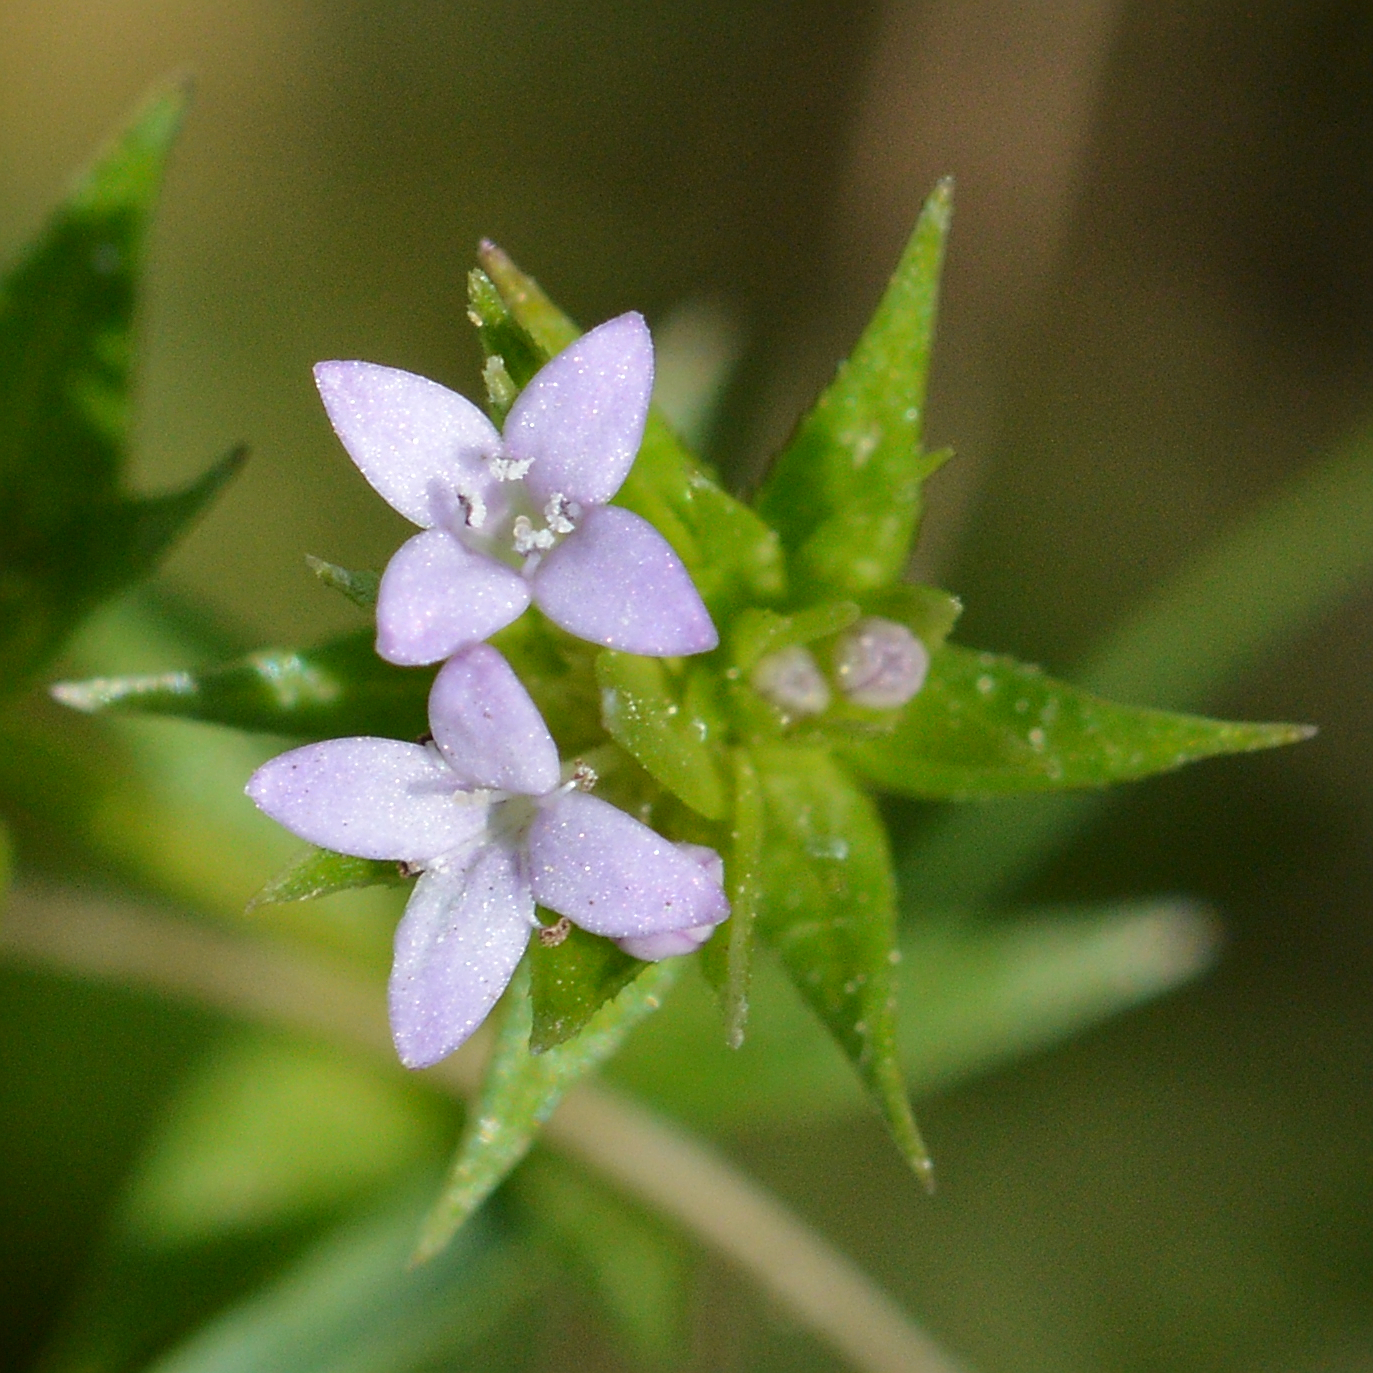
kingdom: Plantae
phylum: Tracheophyta
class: Magnoliopsida
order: Gentianales
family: Rubiaceae
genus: Sherardia
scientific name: Sherardia arvensis
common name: Field madder
